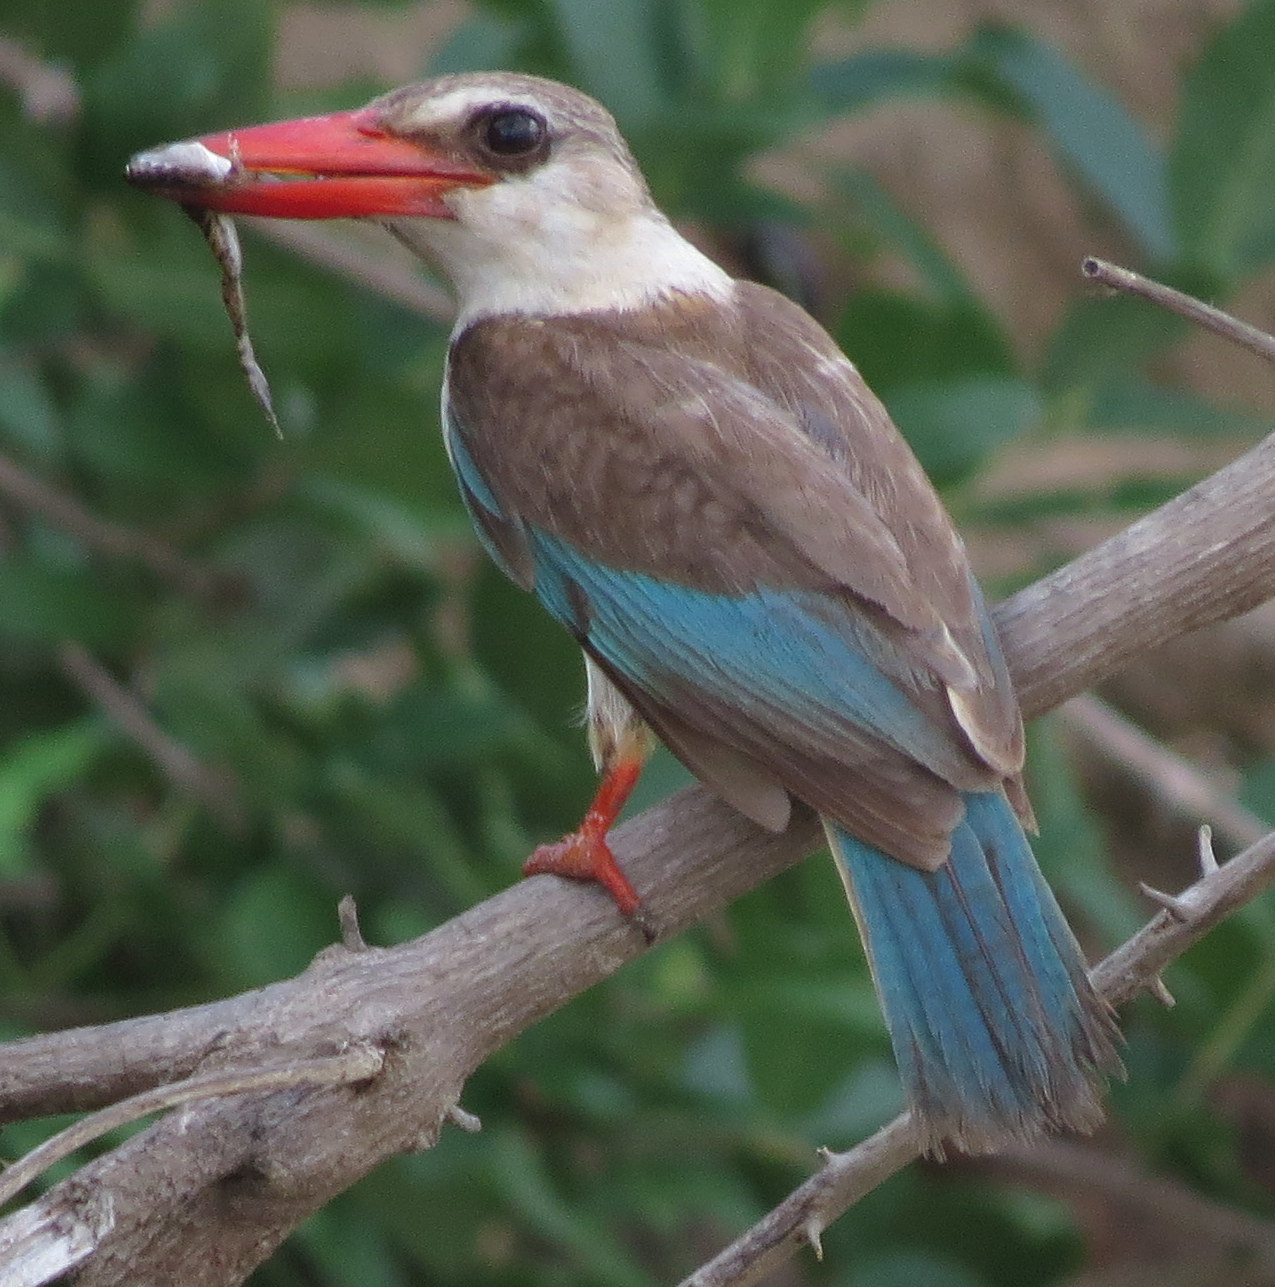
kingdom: Animalia
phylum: Chordata
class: Aves
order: Coraciiformes
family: Alcedinidae
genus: Halcyon
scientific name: Halcyon albiventris
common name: Brown-hooded kingfisher
